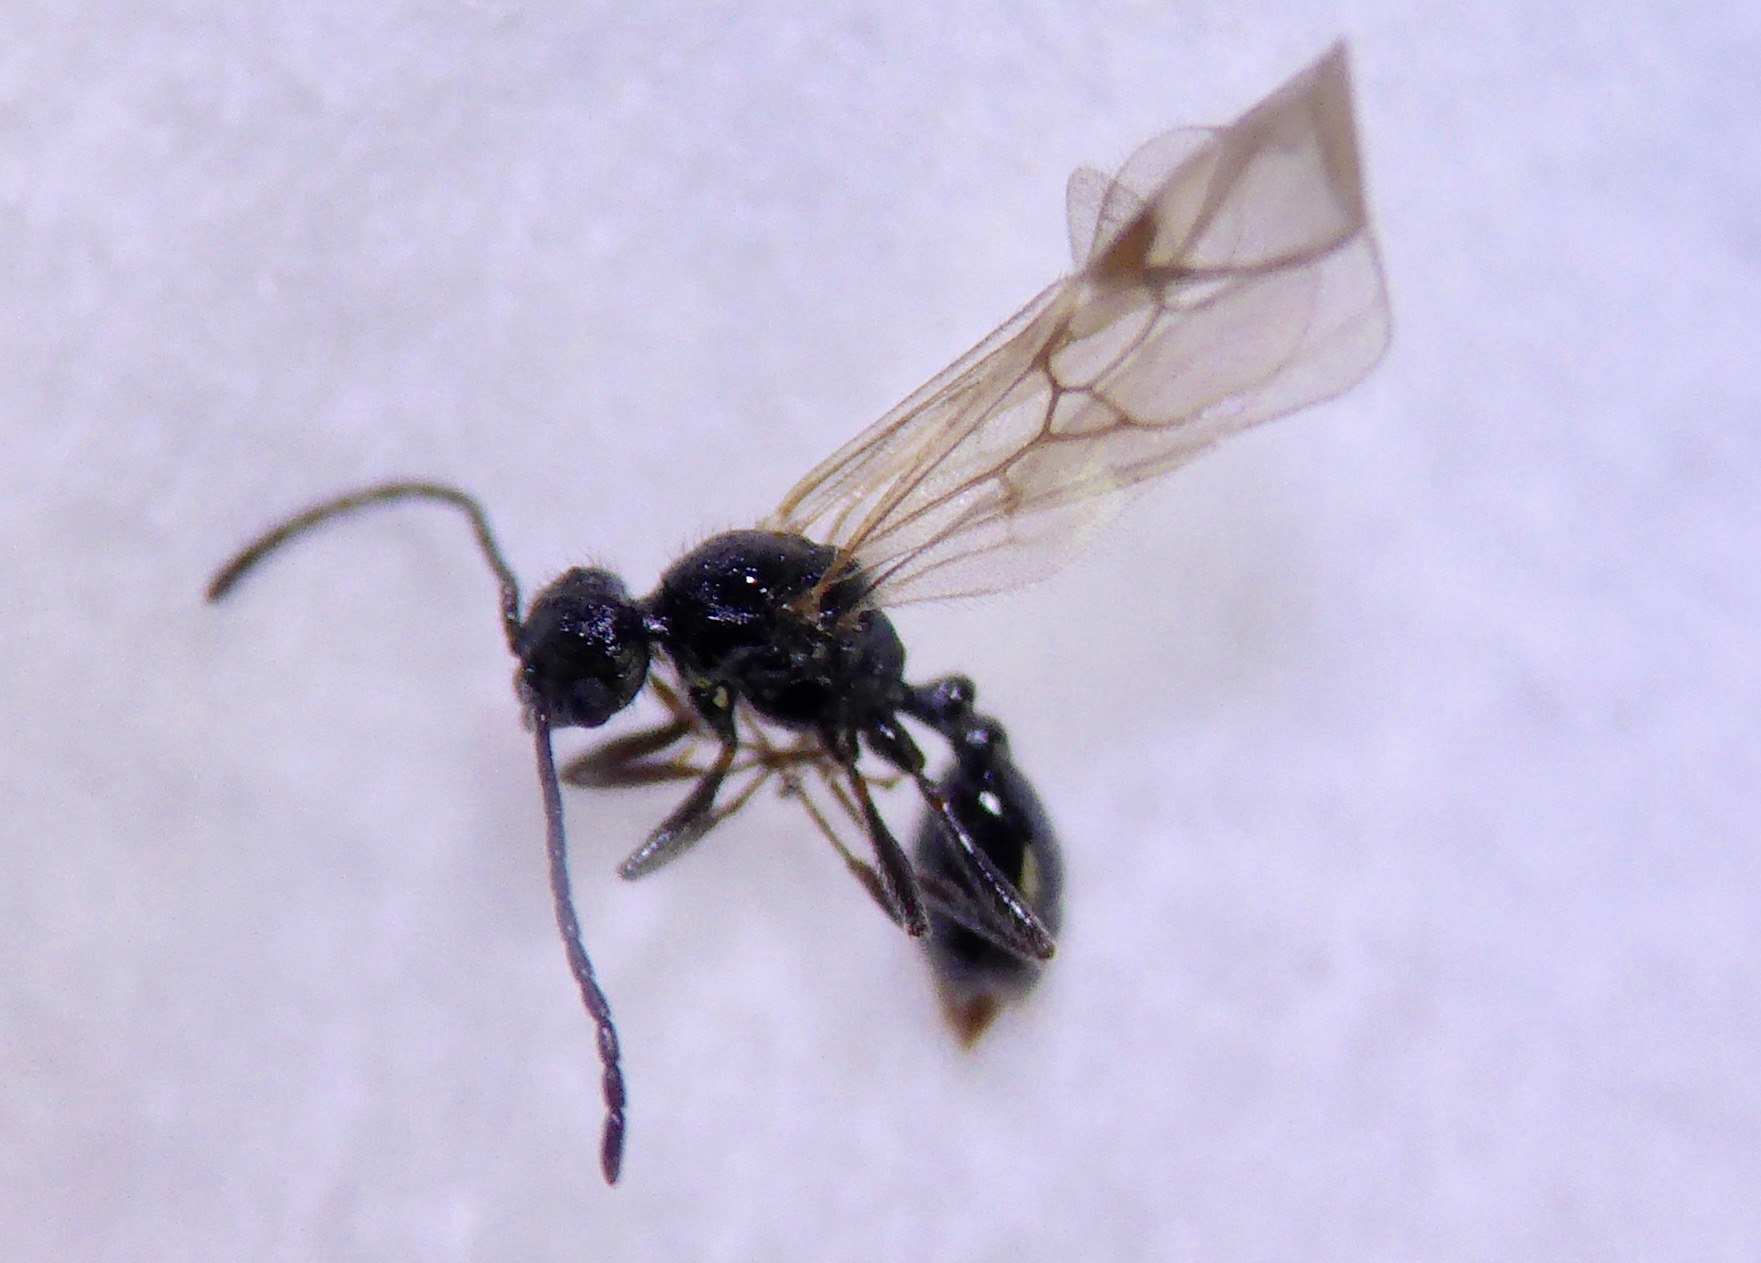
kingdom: Animalia
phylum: Arthropoda
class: Insecta
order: Hymenoptera
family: Formicidae
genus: Huberia
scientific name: Huberia striata
